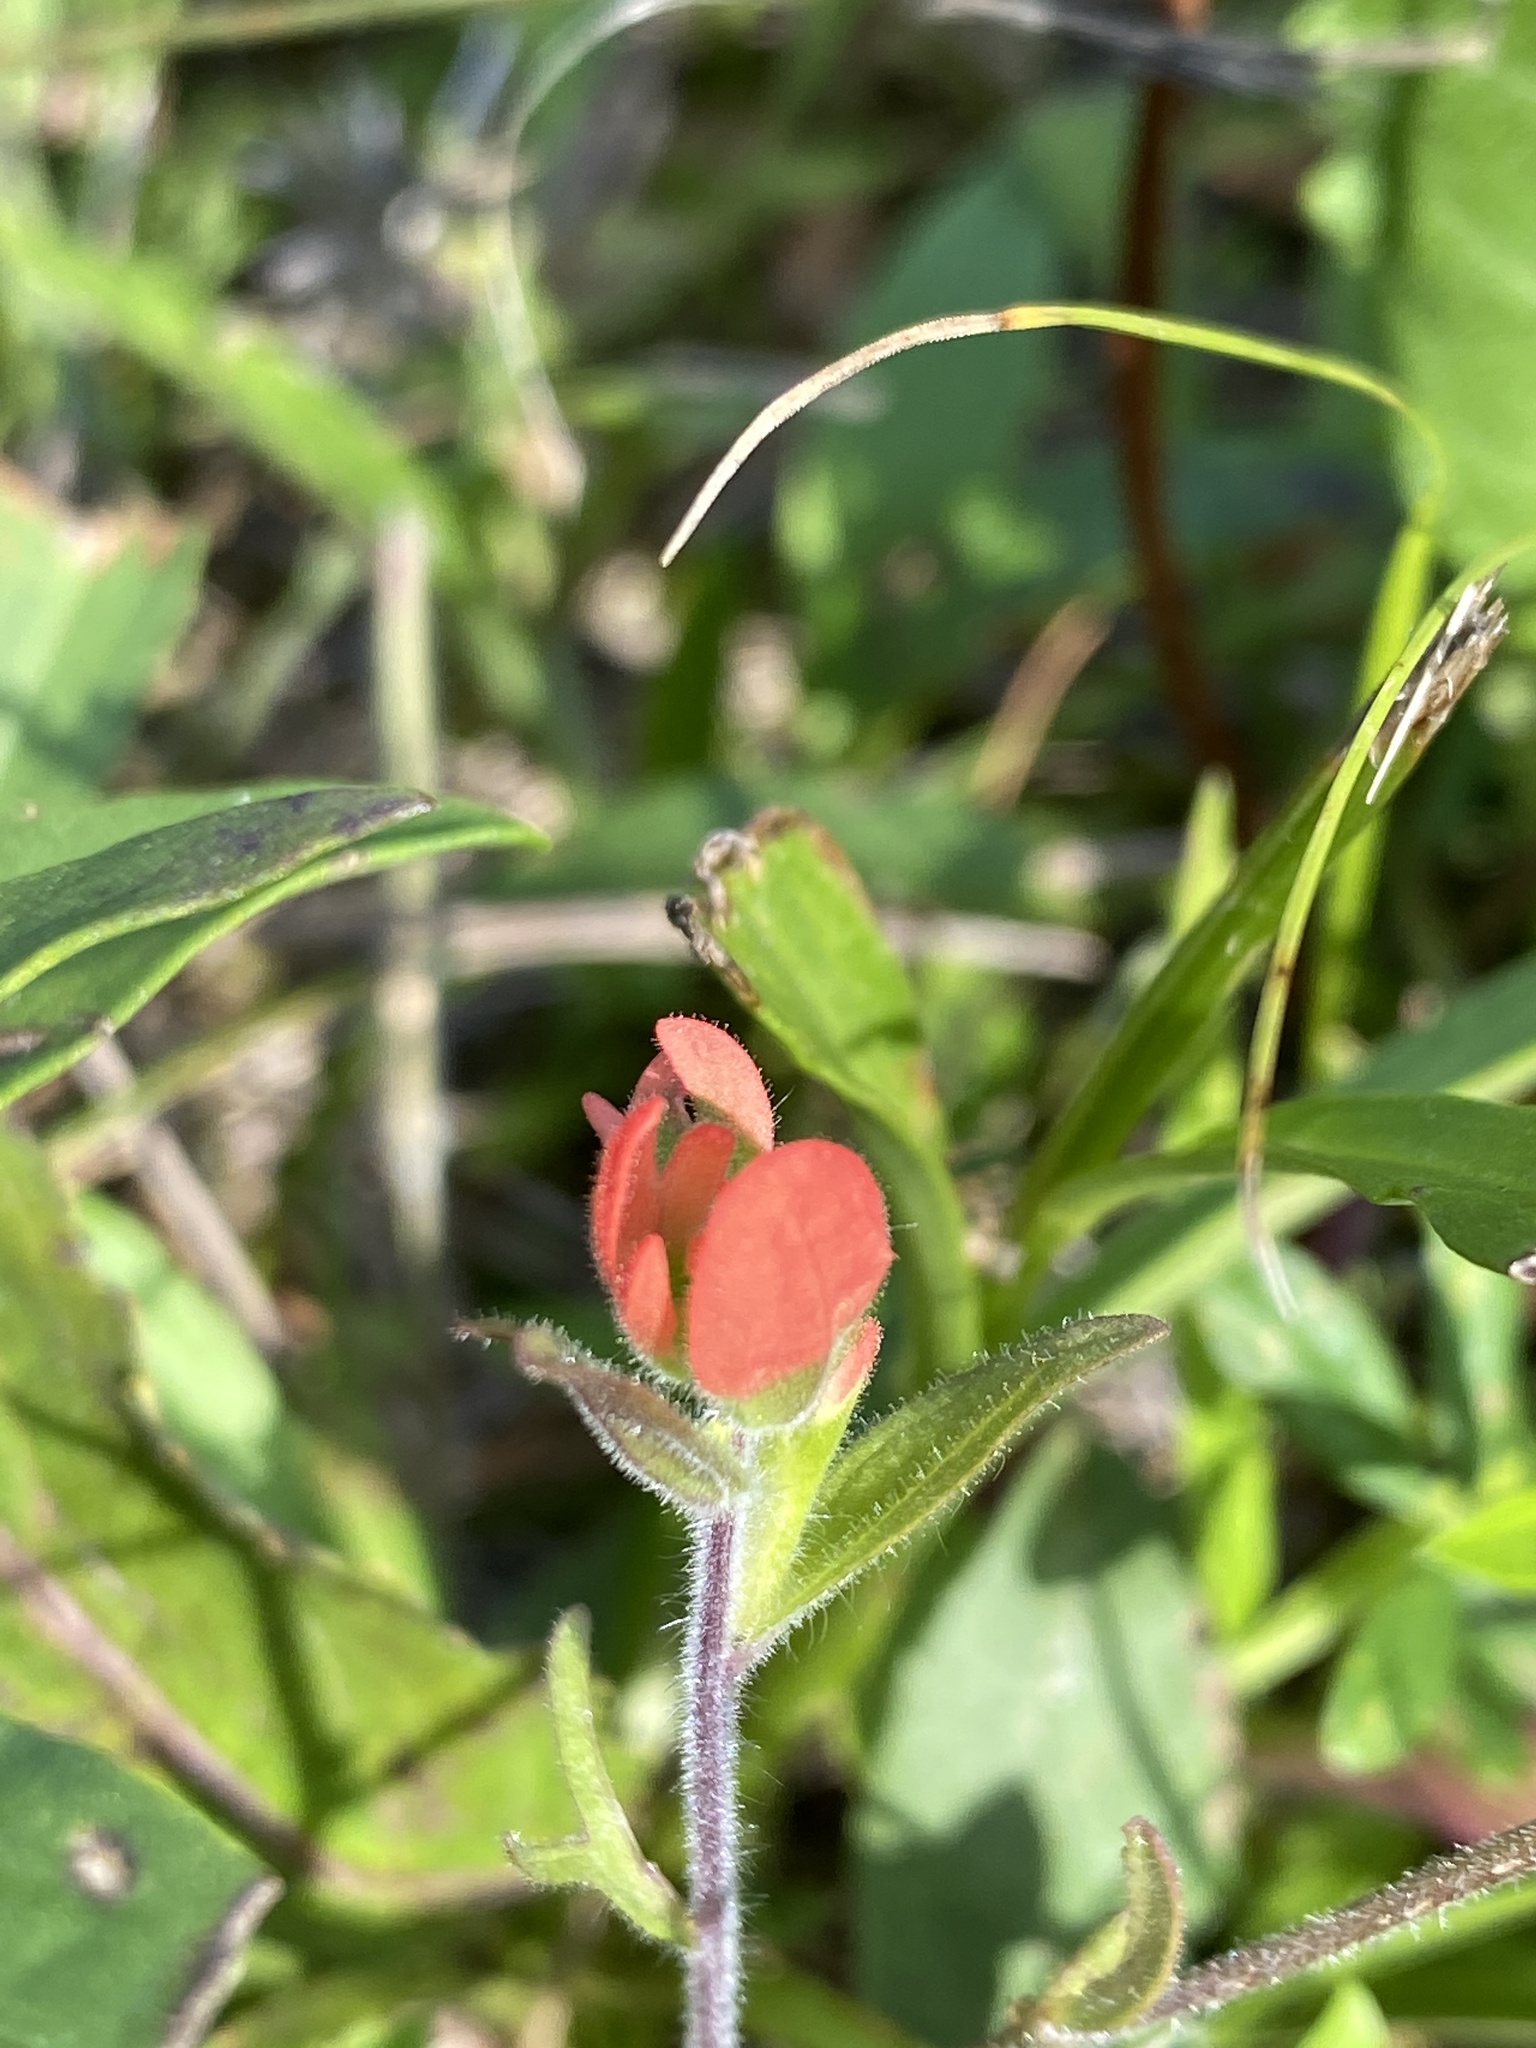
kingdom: Plantae
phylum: Tracheophyta
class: Magnoliopsida
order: Lamiales
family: Orobanchaceae
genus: Castilleja
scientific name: Castilleja coccinea
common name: Scarlet paintbrush
